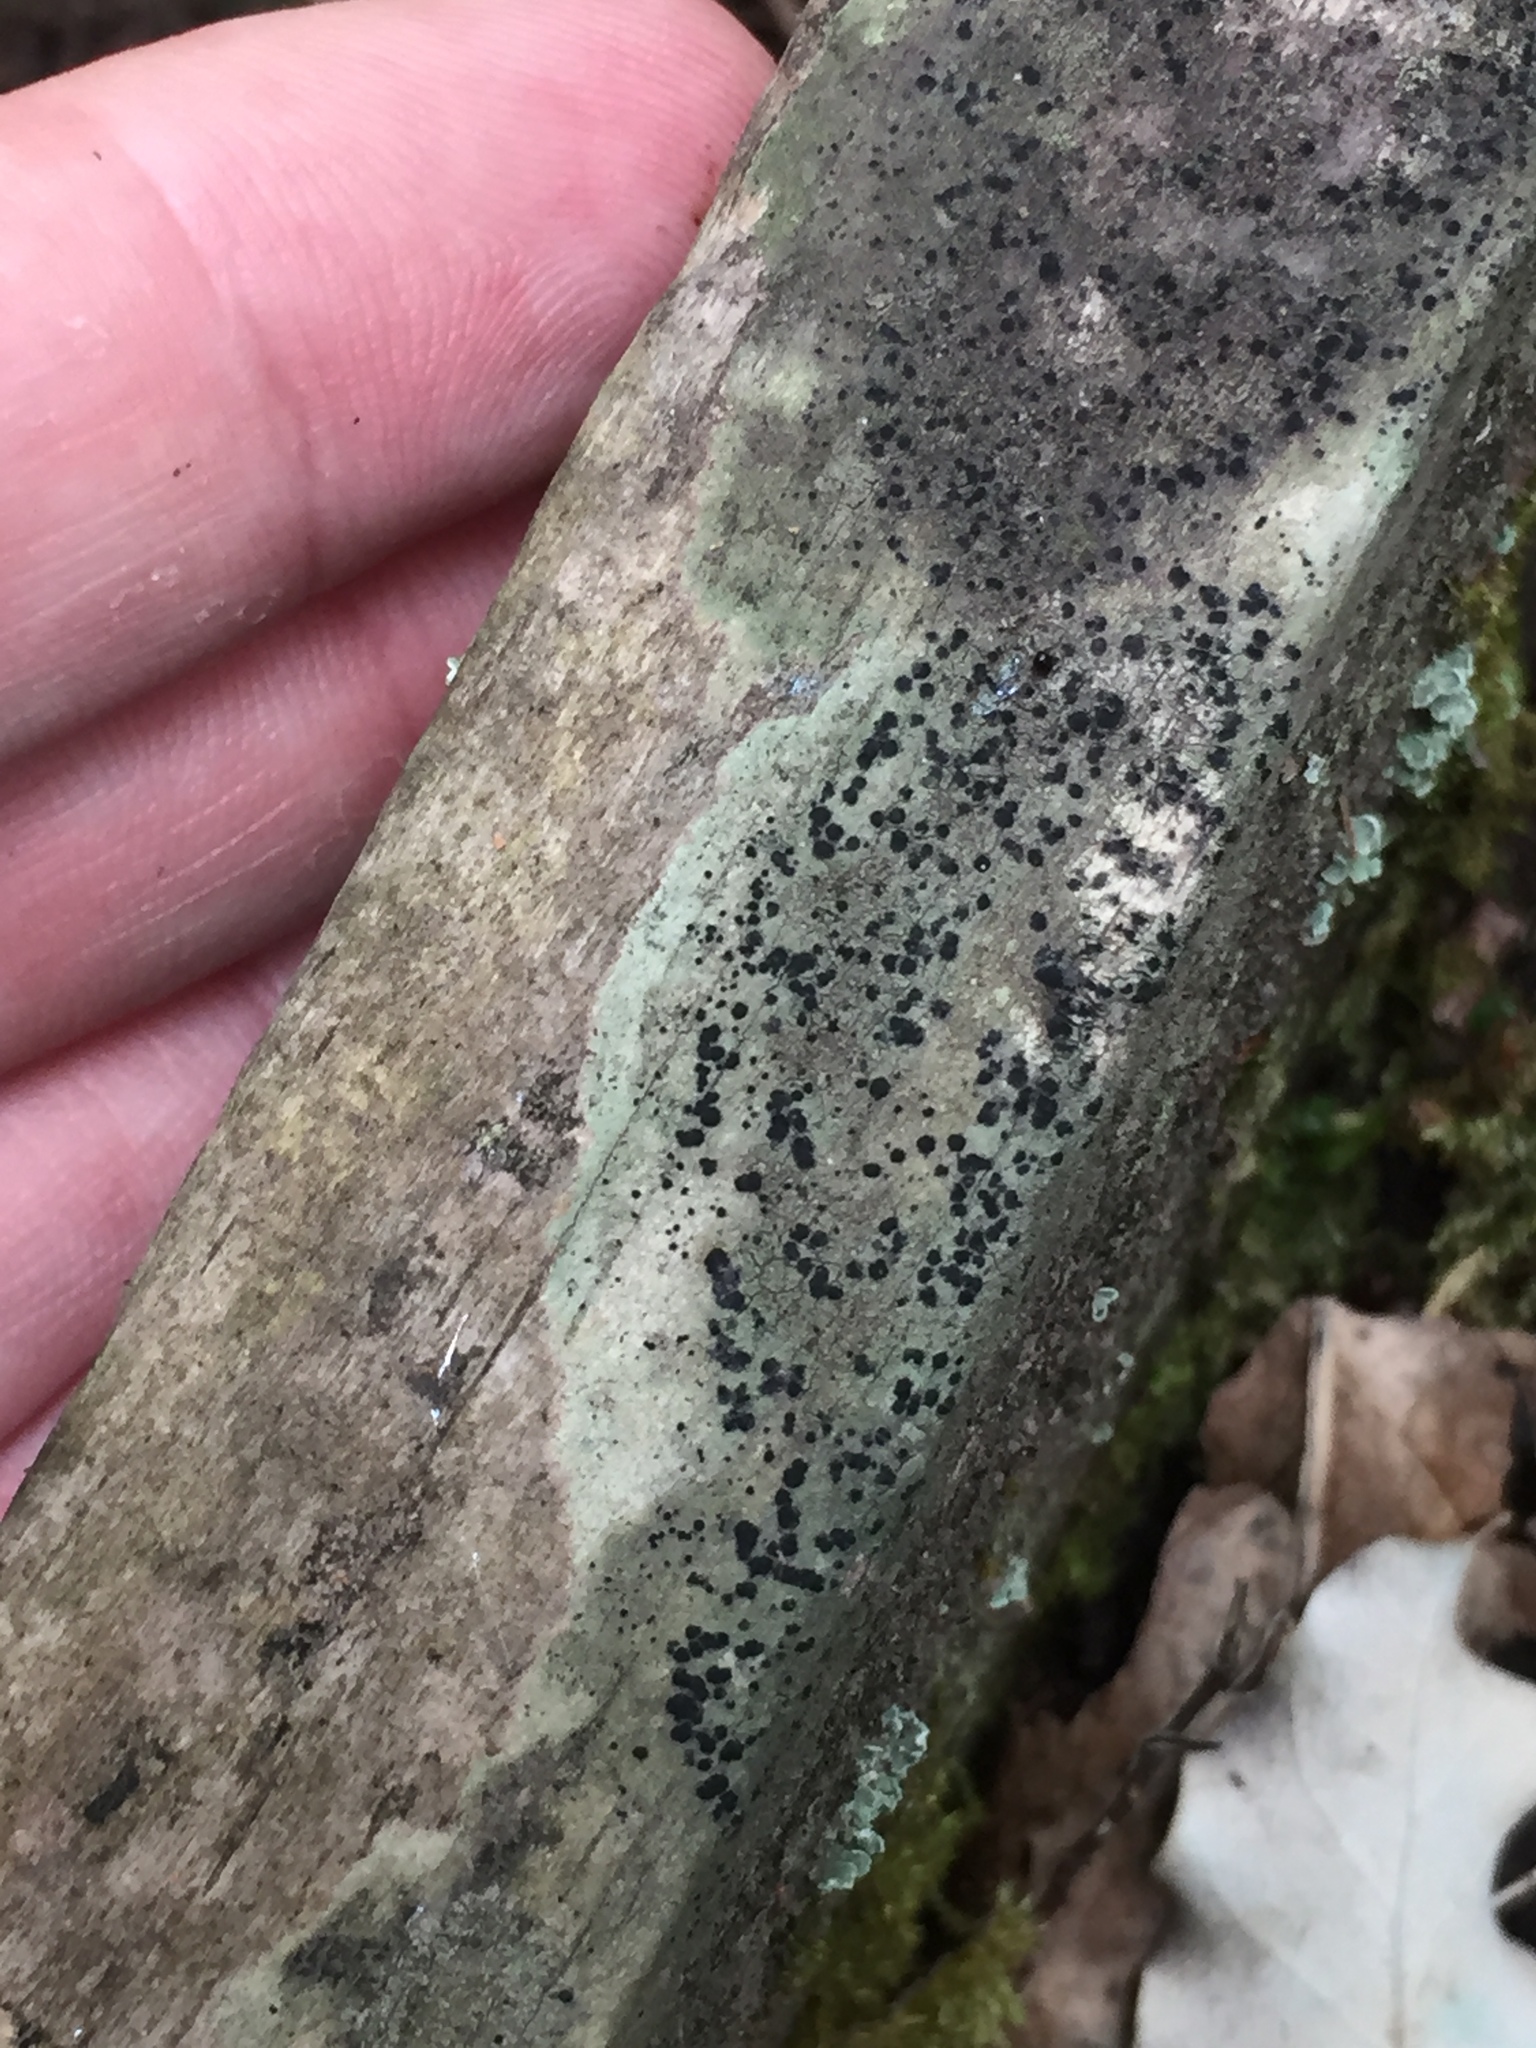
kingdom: Fungi
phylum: Ascomycota
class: Lecanoromycetes
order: Lecanorales
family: Byssolomataceae
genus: Byssoloma
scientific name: Byssoloma
